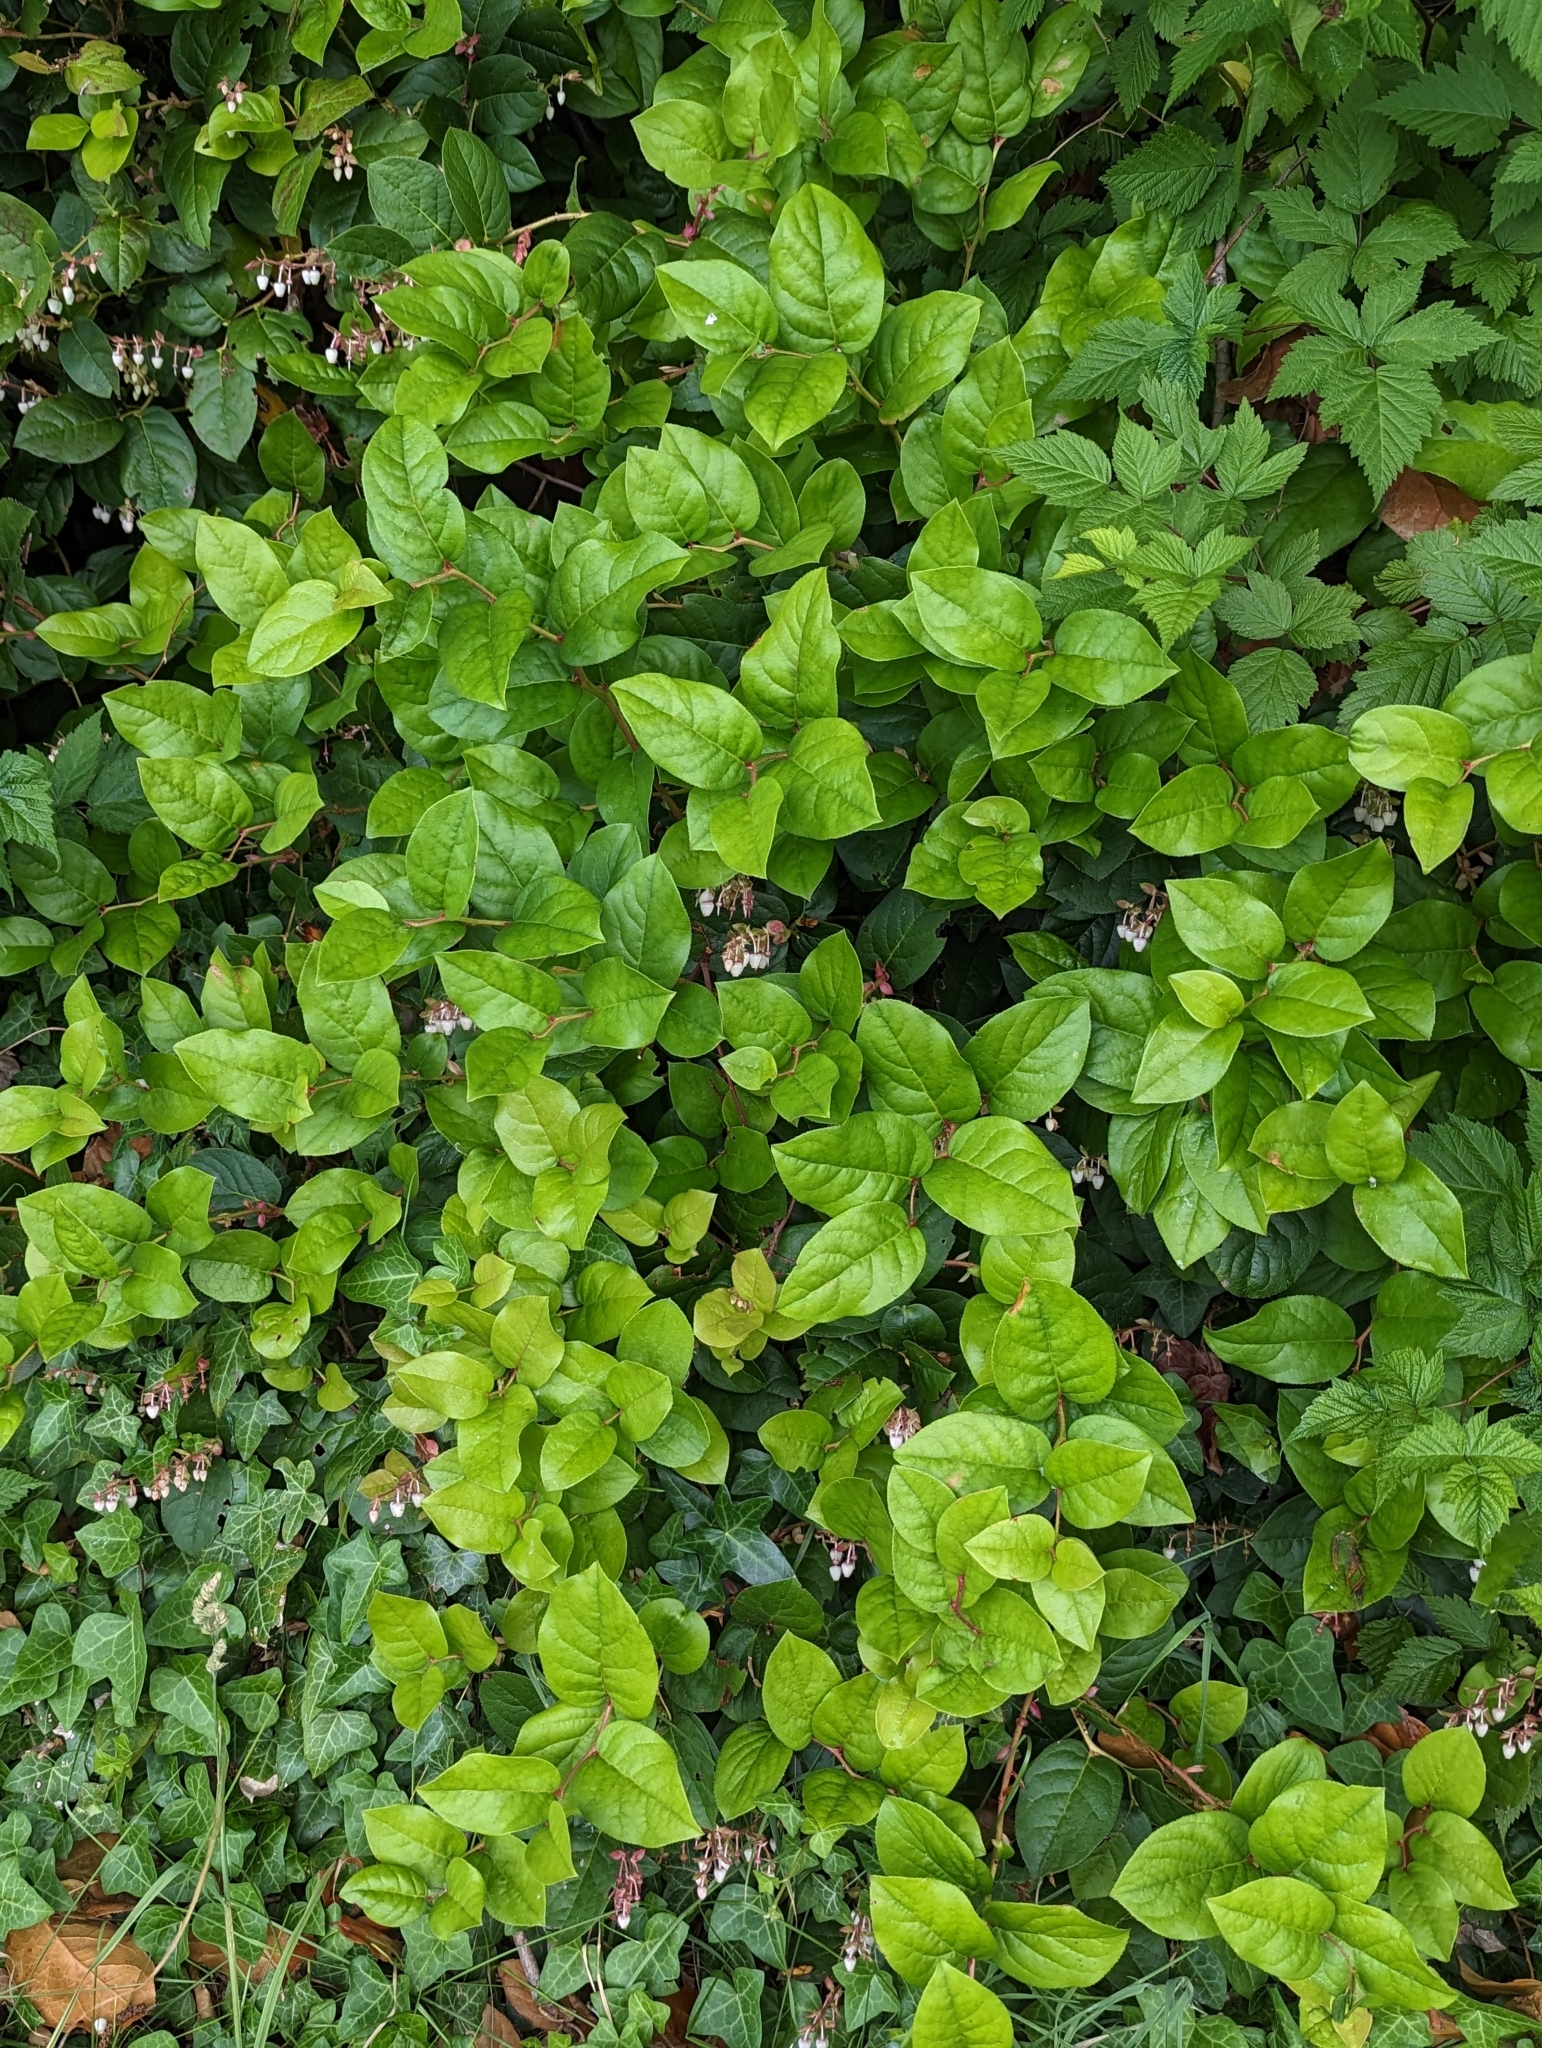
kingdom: Plantae
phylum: Tracheophyta
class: Magnoliopsida
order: Ericales
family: Ericaceae
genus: Gaultheria
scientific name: Gaultheria shallon
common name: Shallon
